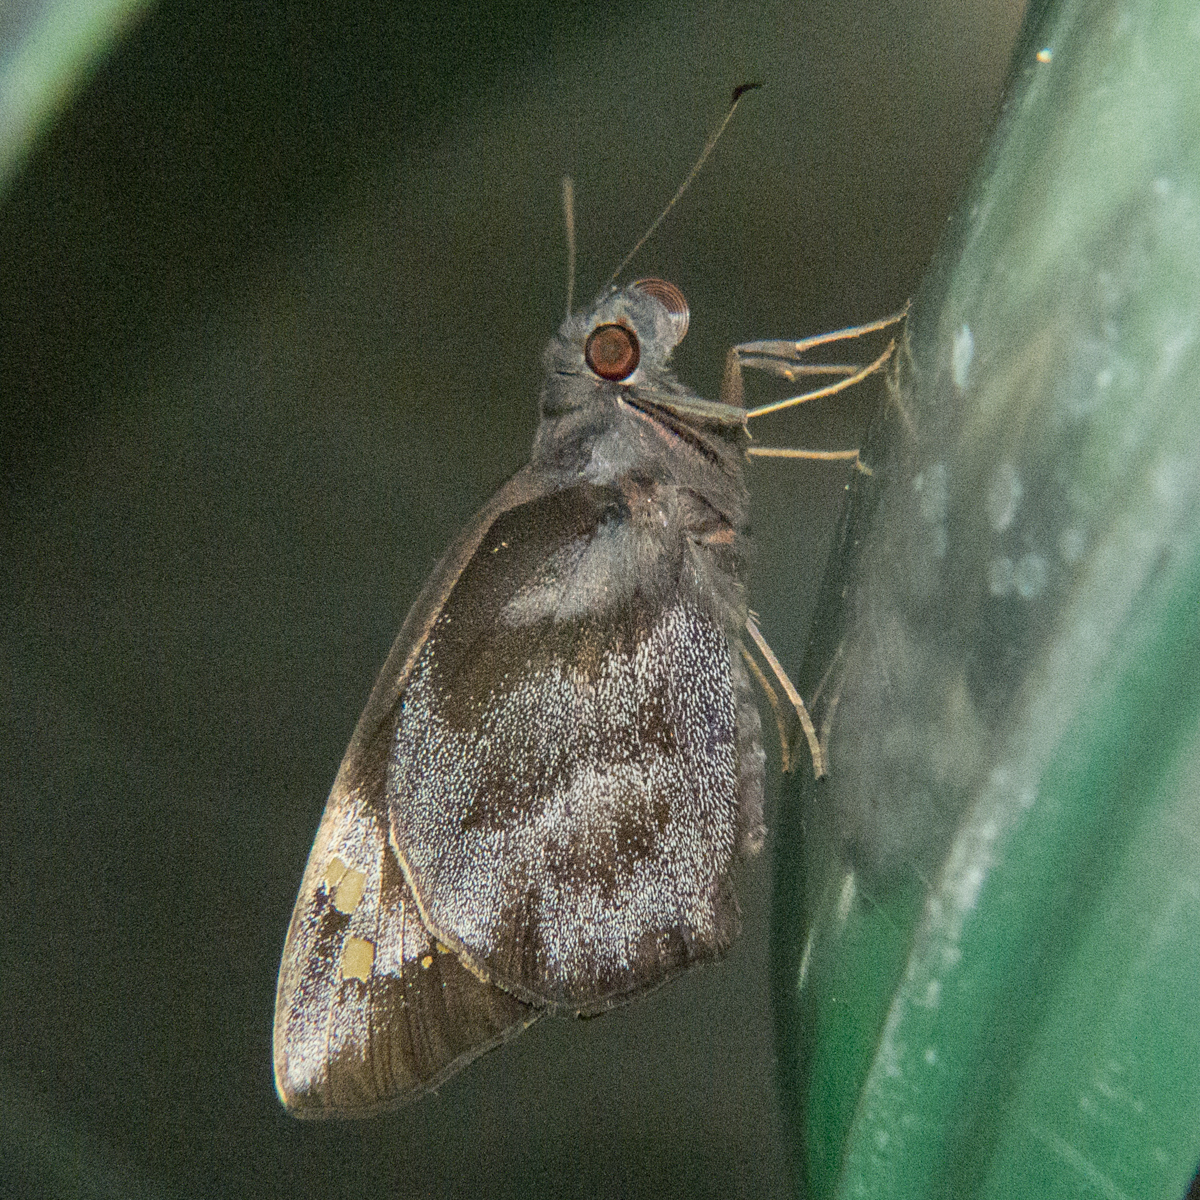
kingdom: Animalia
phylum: Arthropoda
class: Insecta
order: Lepidoptera
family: Hesperiidae
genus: Gangara
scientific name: Gangara thyrsis
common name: Giant redeye
